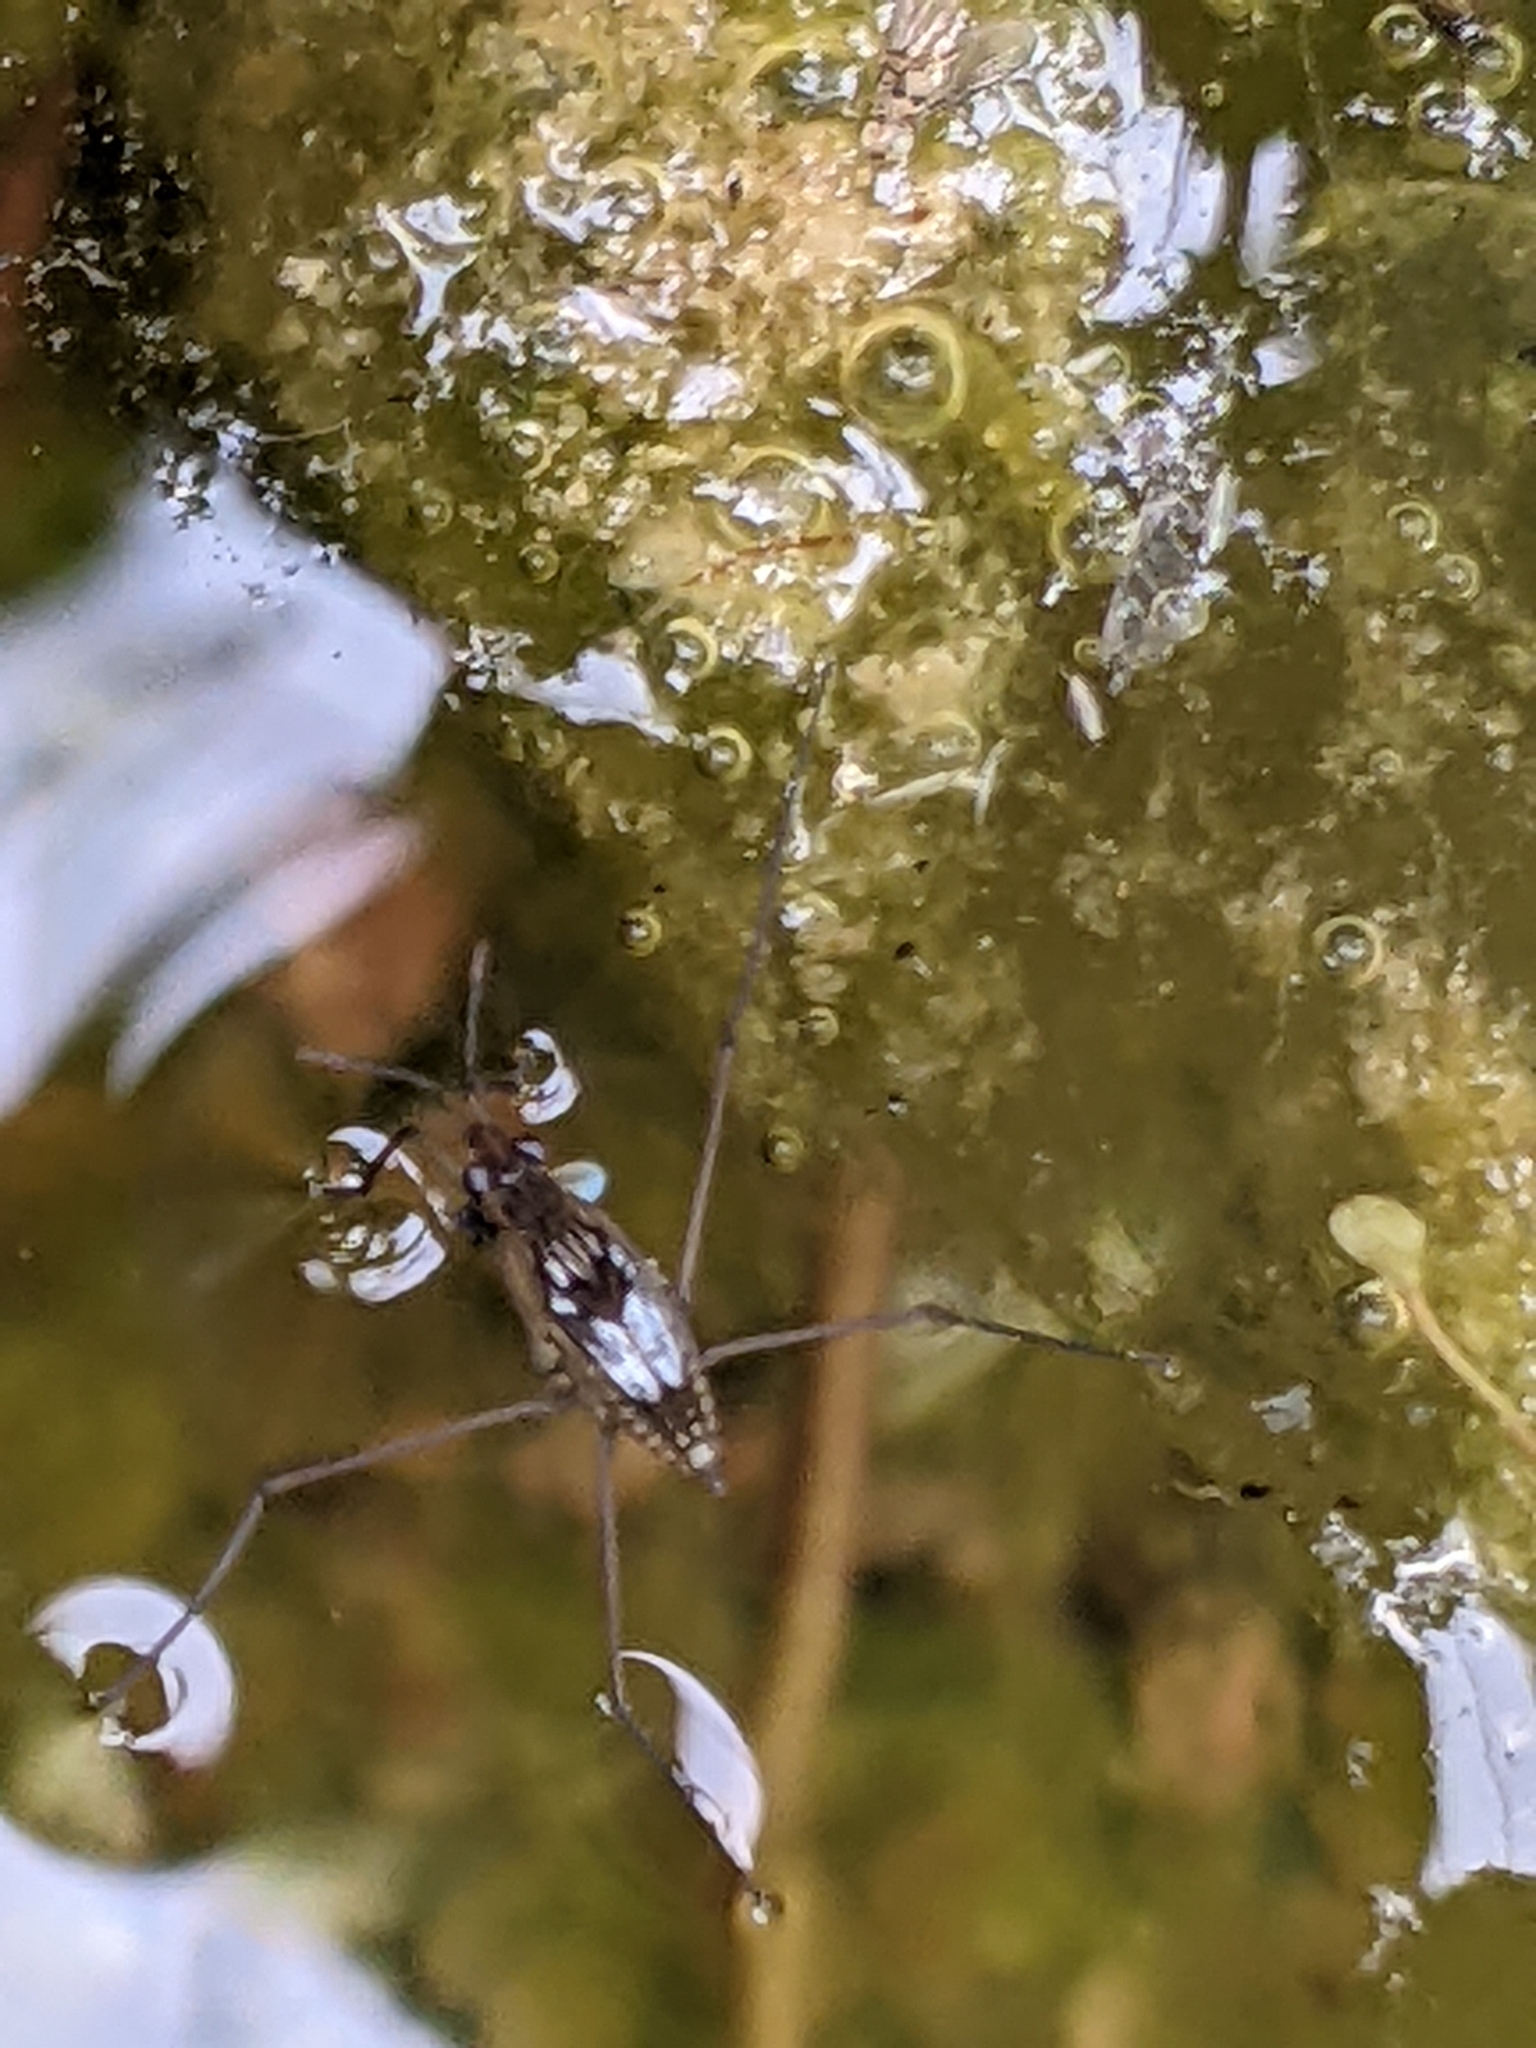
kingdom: Animalia
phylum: Arthropoda
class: Insecta
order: Hemiptera
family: Gerridae
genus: Gerris
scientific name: Gerris
